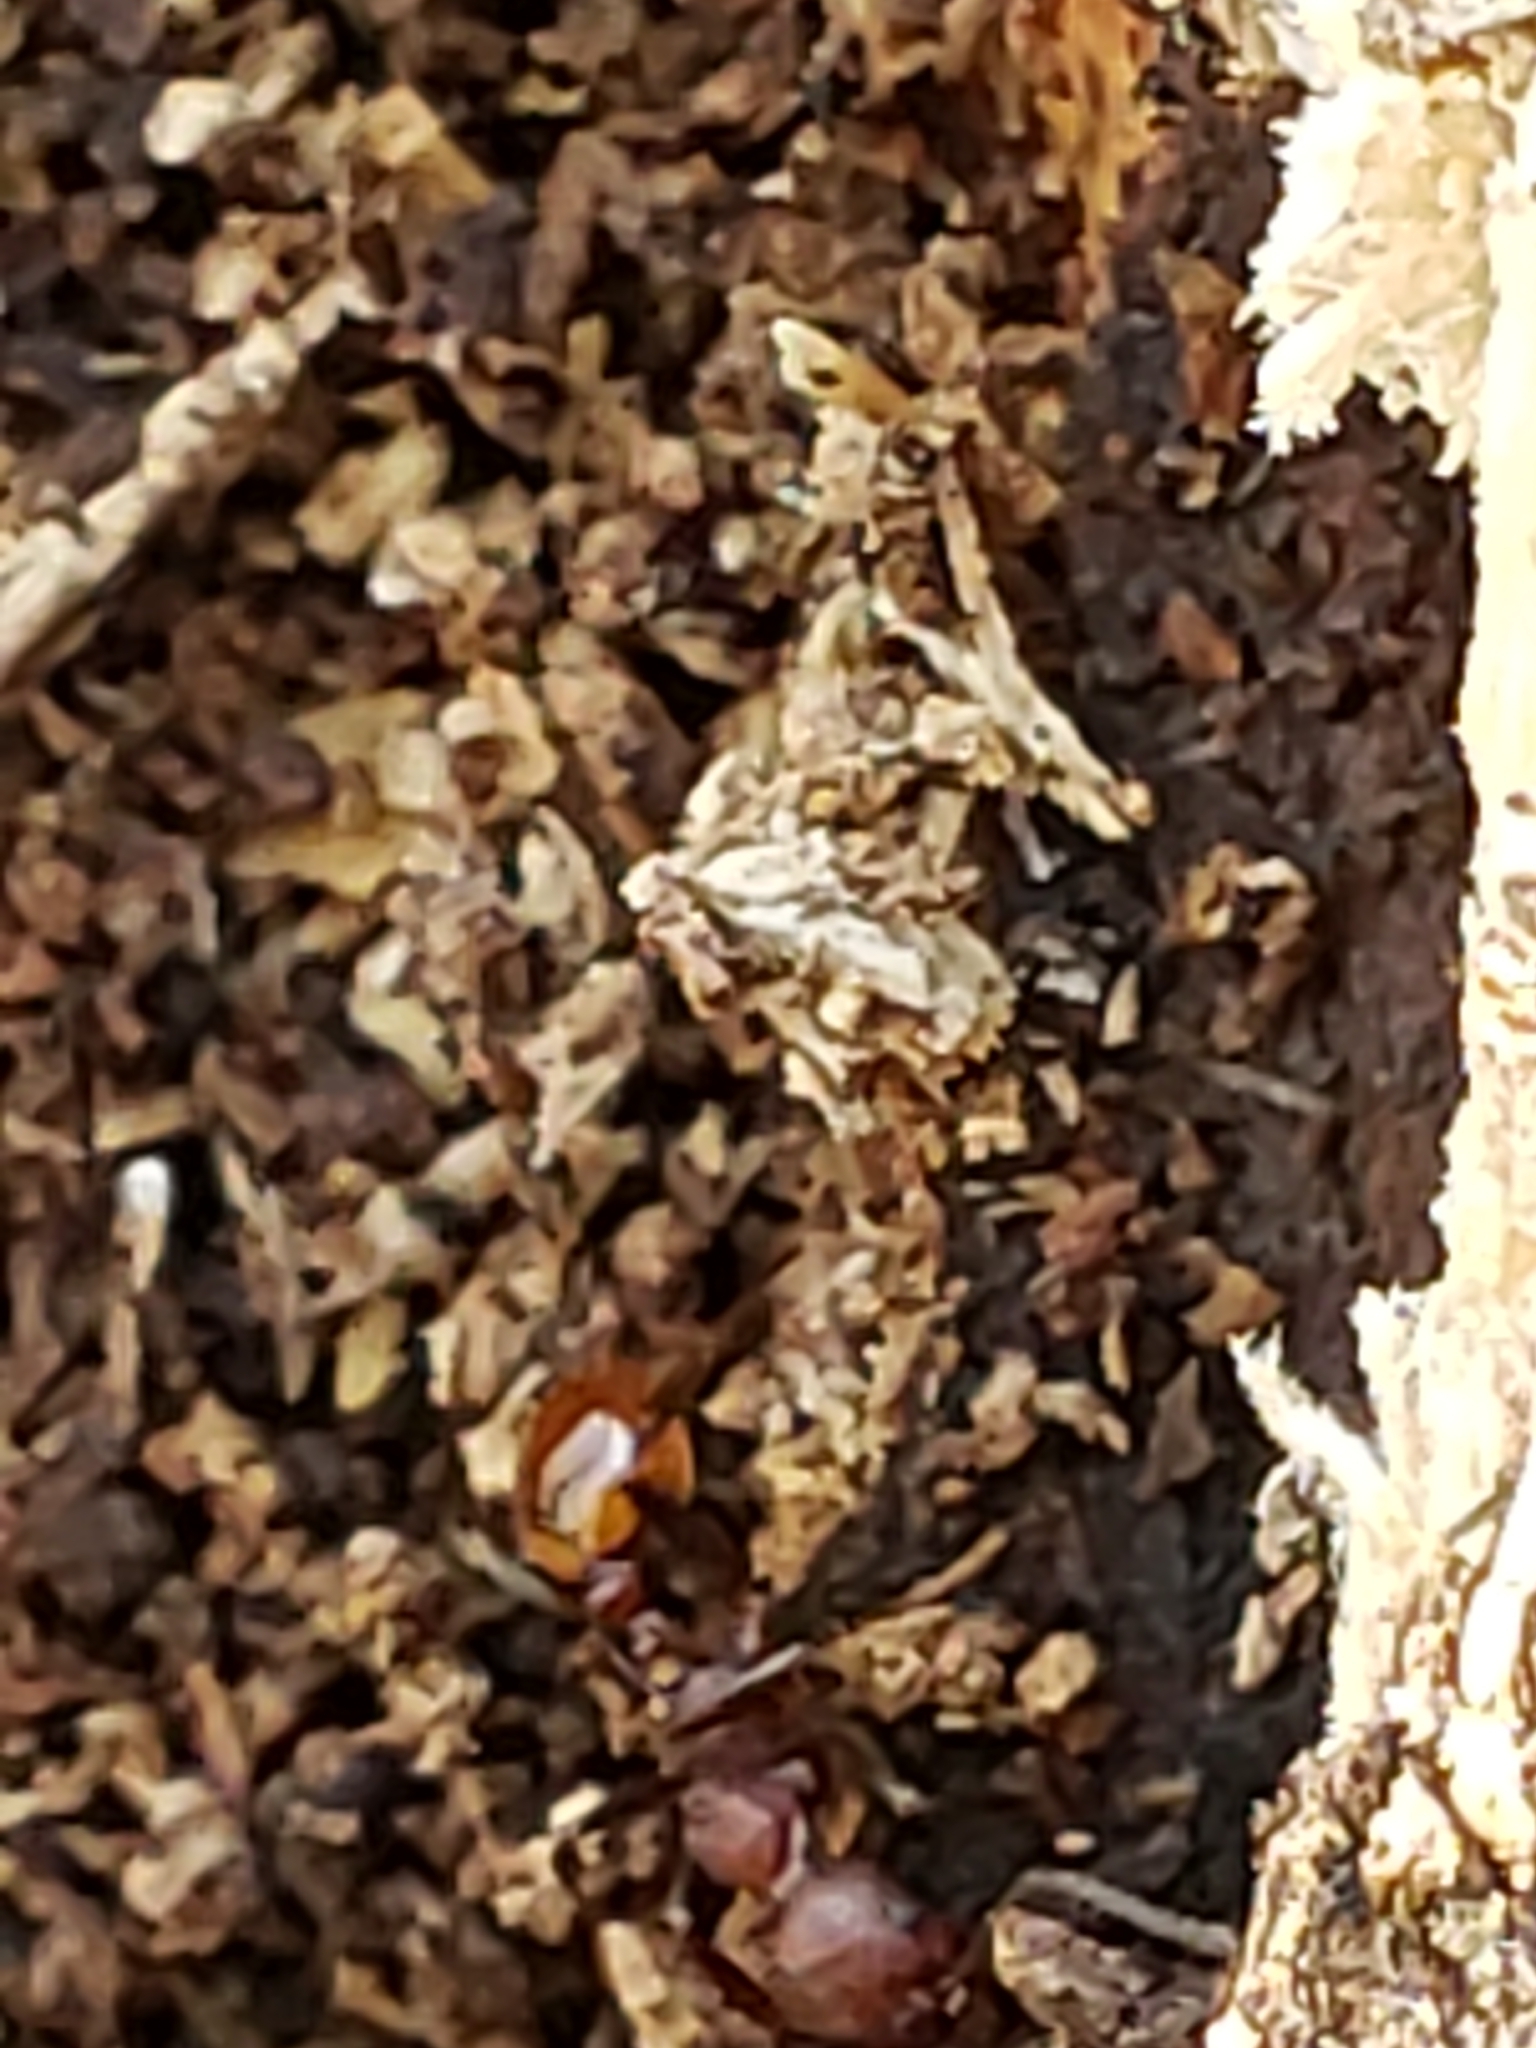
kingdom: Animalia
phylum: Arthropoda
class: Insecta
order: Hymenoptera
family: Formicidae
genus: Aphaenogaster
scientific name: Aphaenogaster tennesseensis
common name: Tennessee thread-waisted ant
